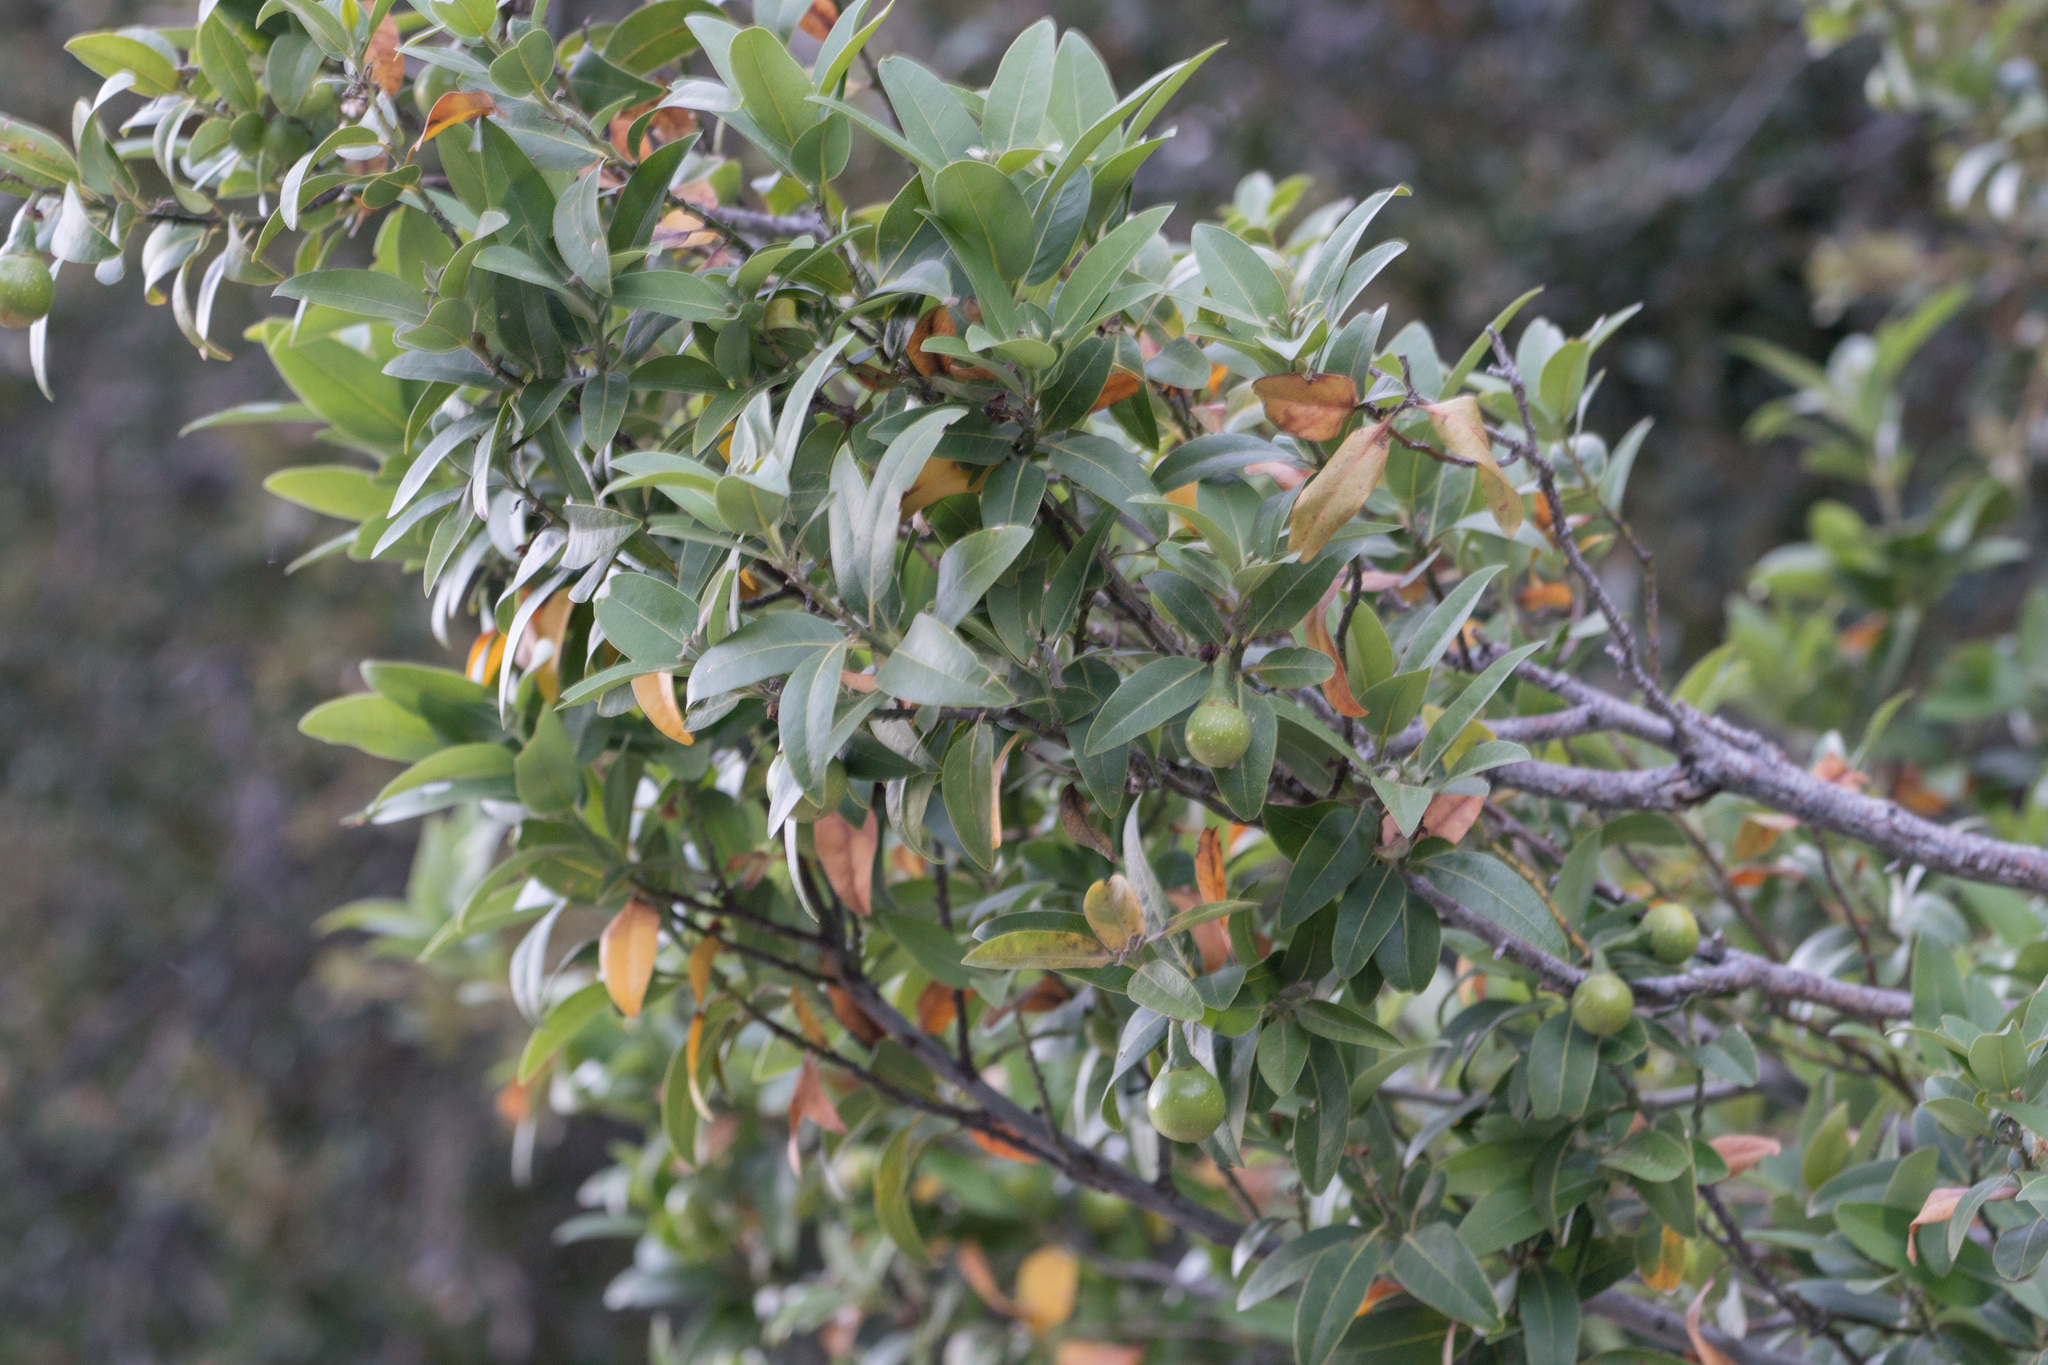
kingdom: Plantae
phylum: Tracheophyta
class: Magnoliopsida
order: Laurales
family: Lauraceae
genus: Umbellularia
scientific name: Umbellularia californica
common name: California bay
